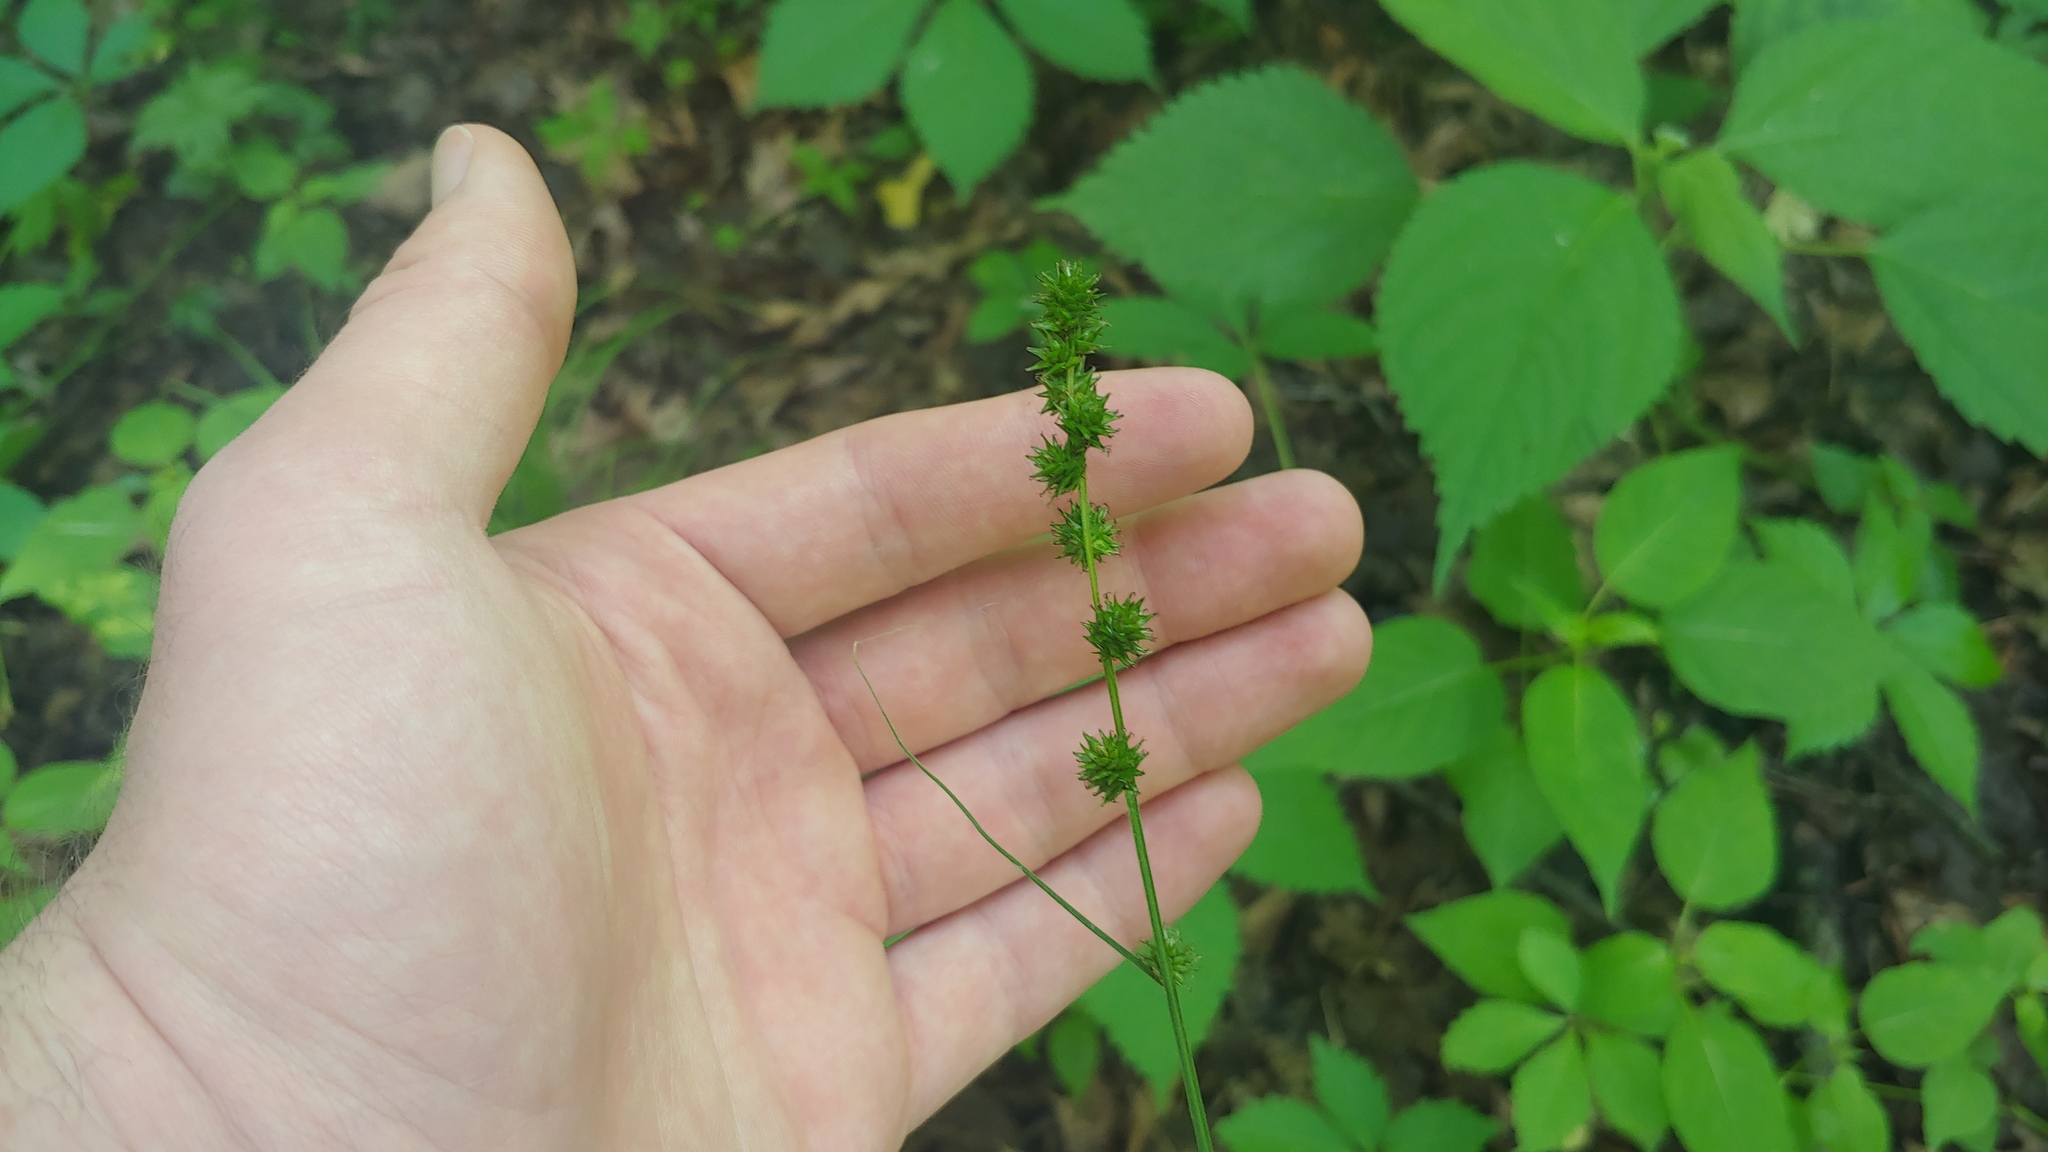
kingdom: Plantae
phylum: Tracheophyta
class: Liliopsida
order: Poales
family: Cyperaceae
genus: Carex
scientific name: Carex sparganioides
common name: Burreed sedge
